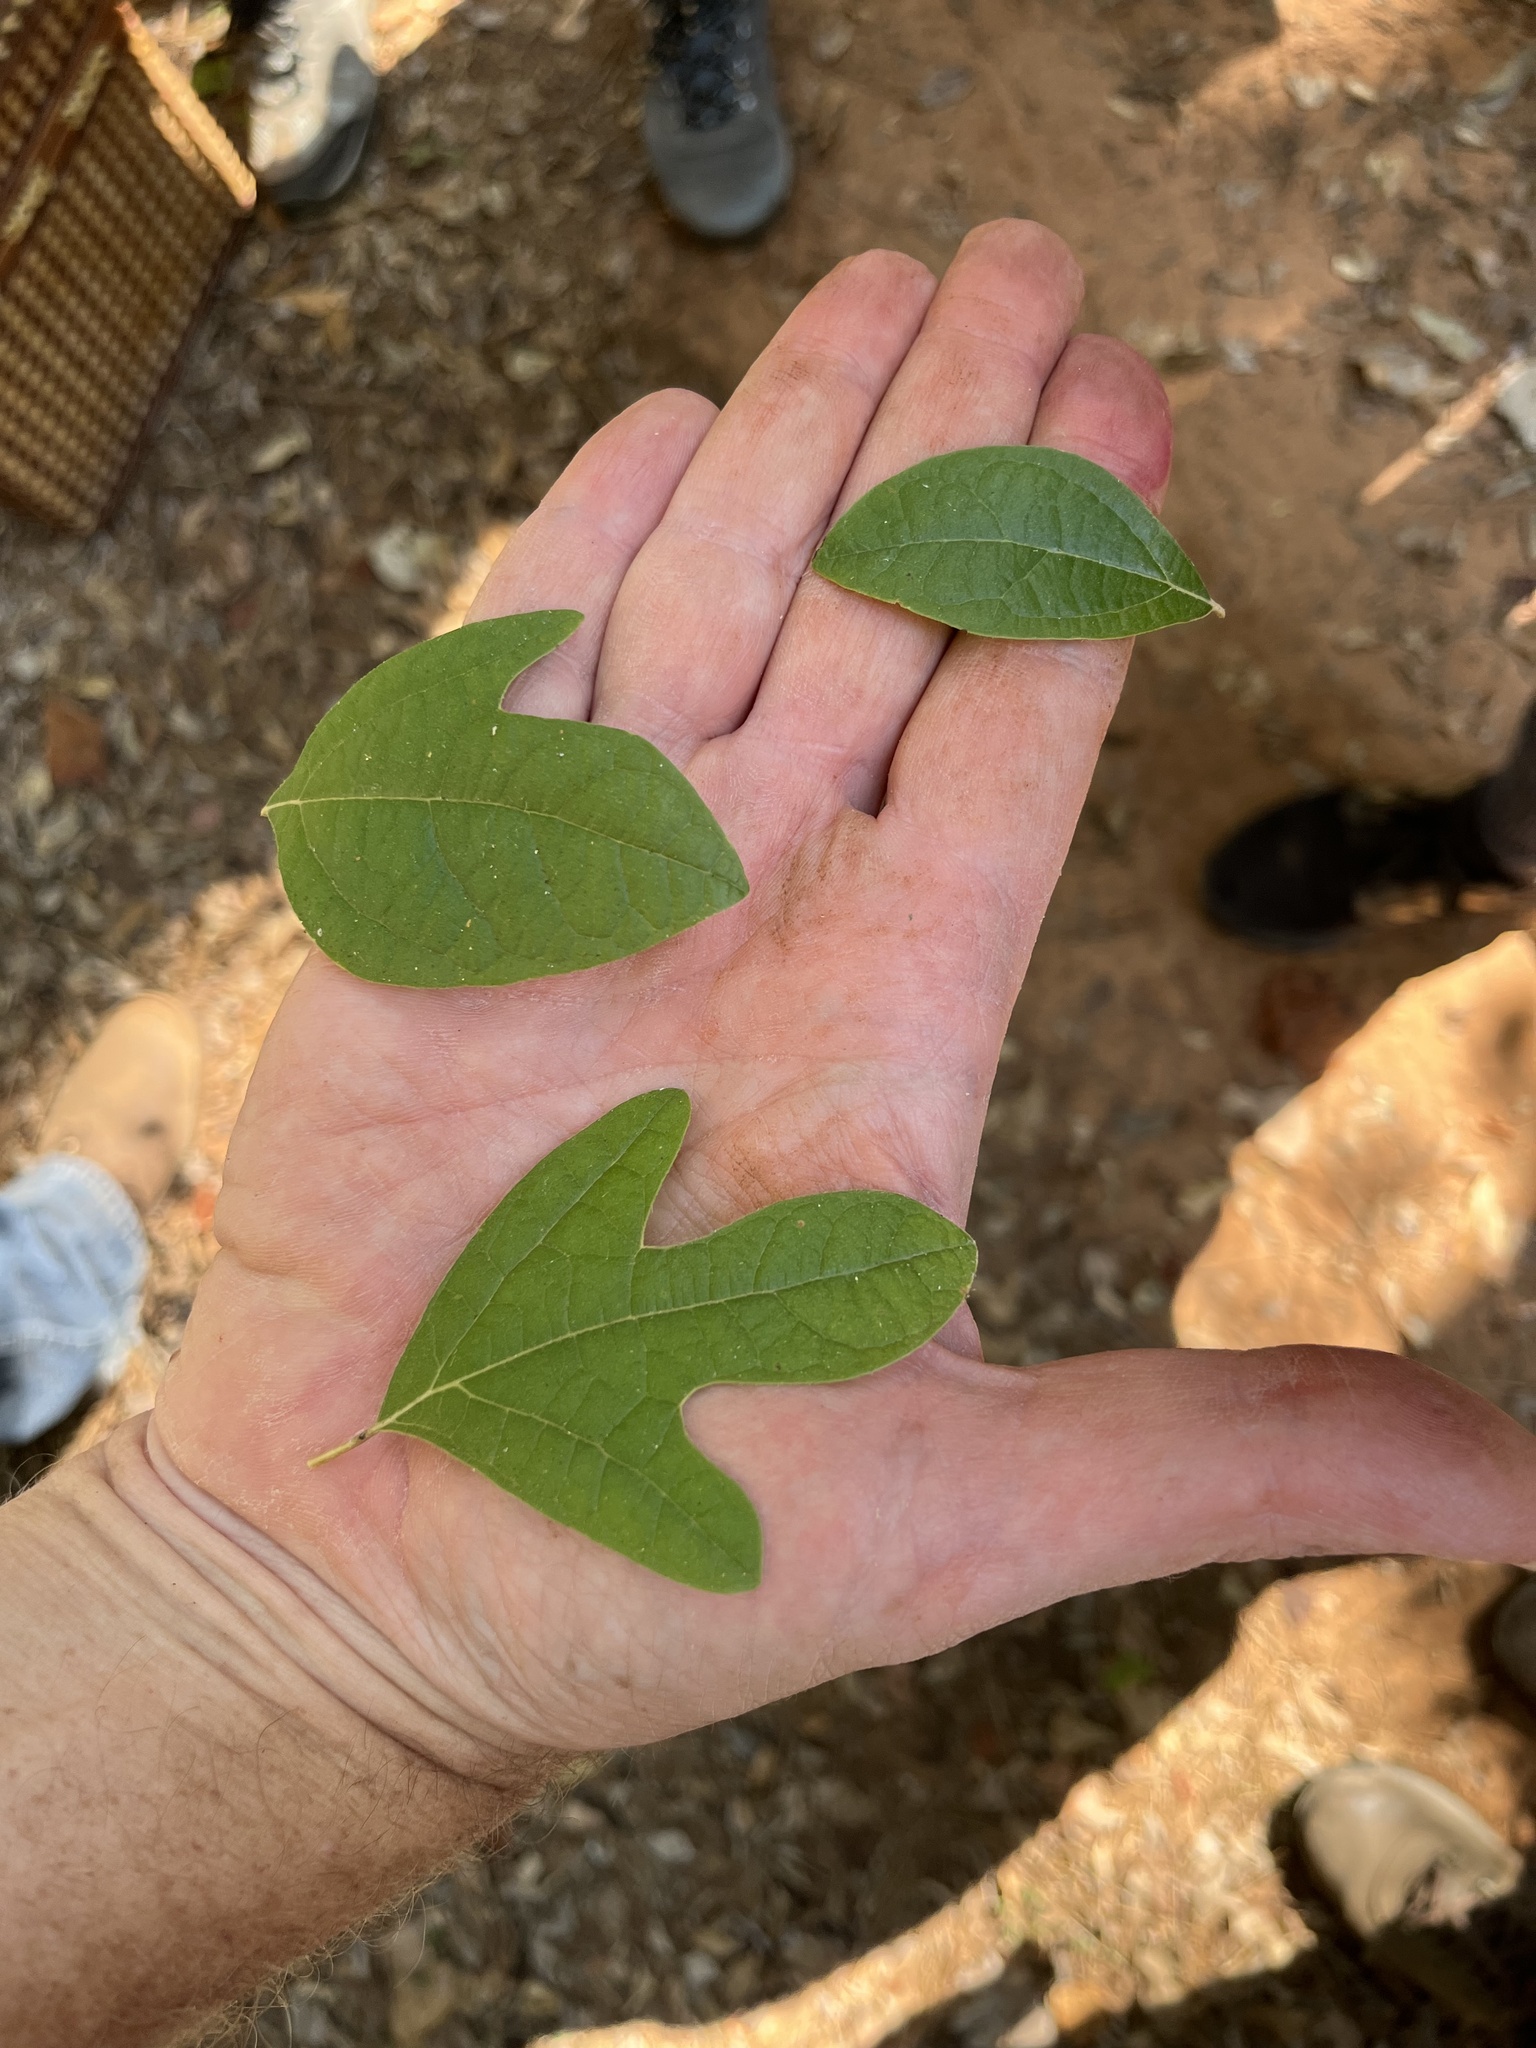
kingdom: Plantae
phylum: Tracheophyta
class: Magnoliopsida
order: Laurales
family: Lauraceae
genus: Sassafras
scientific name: Sassafras albidum
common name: Sassafras
